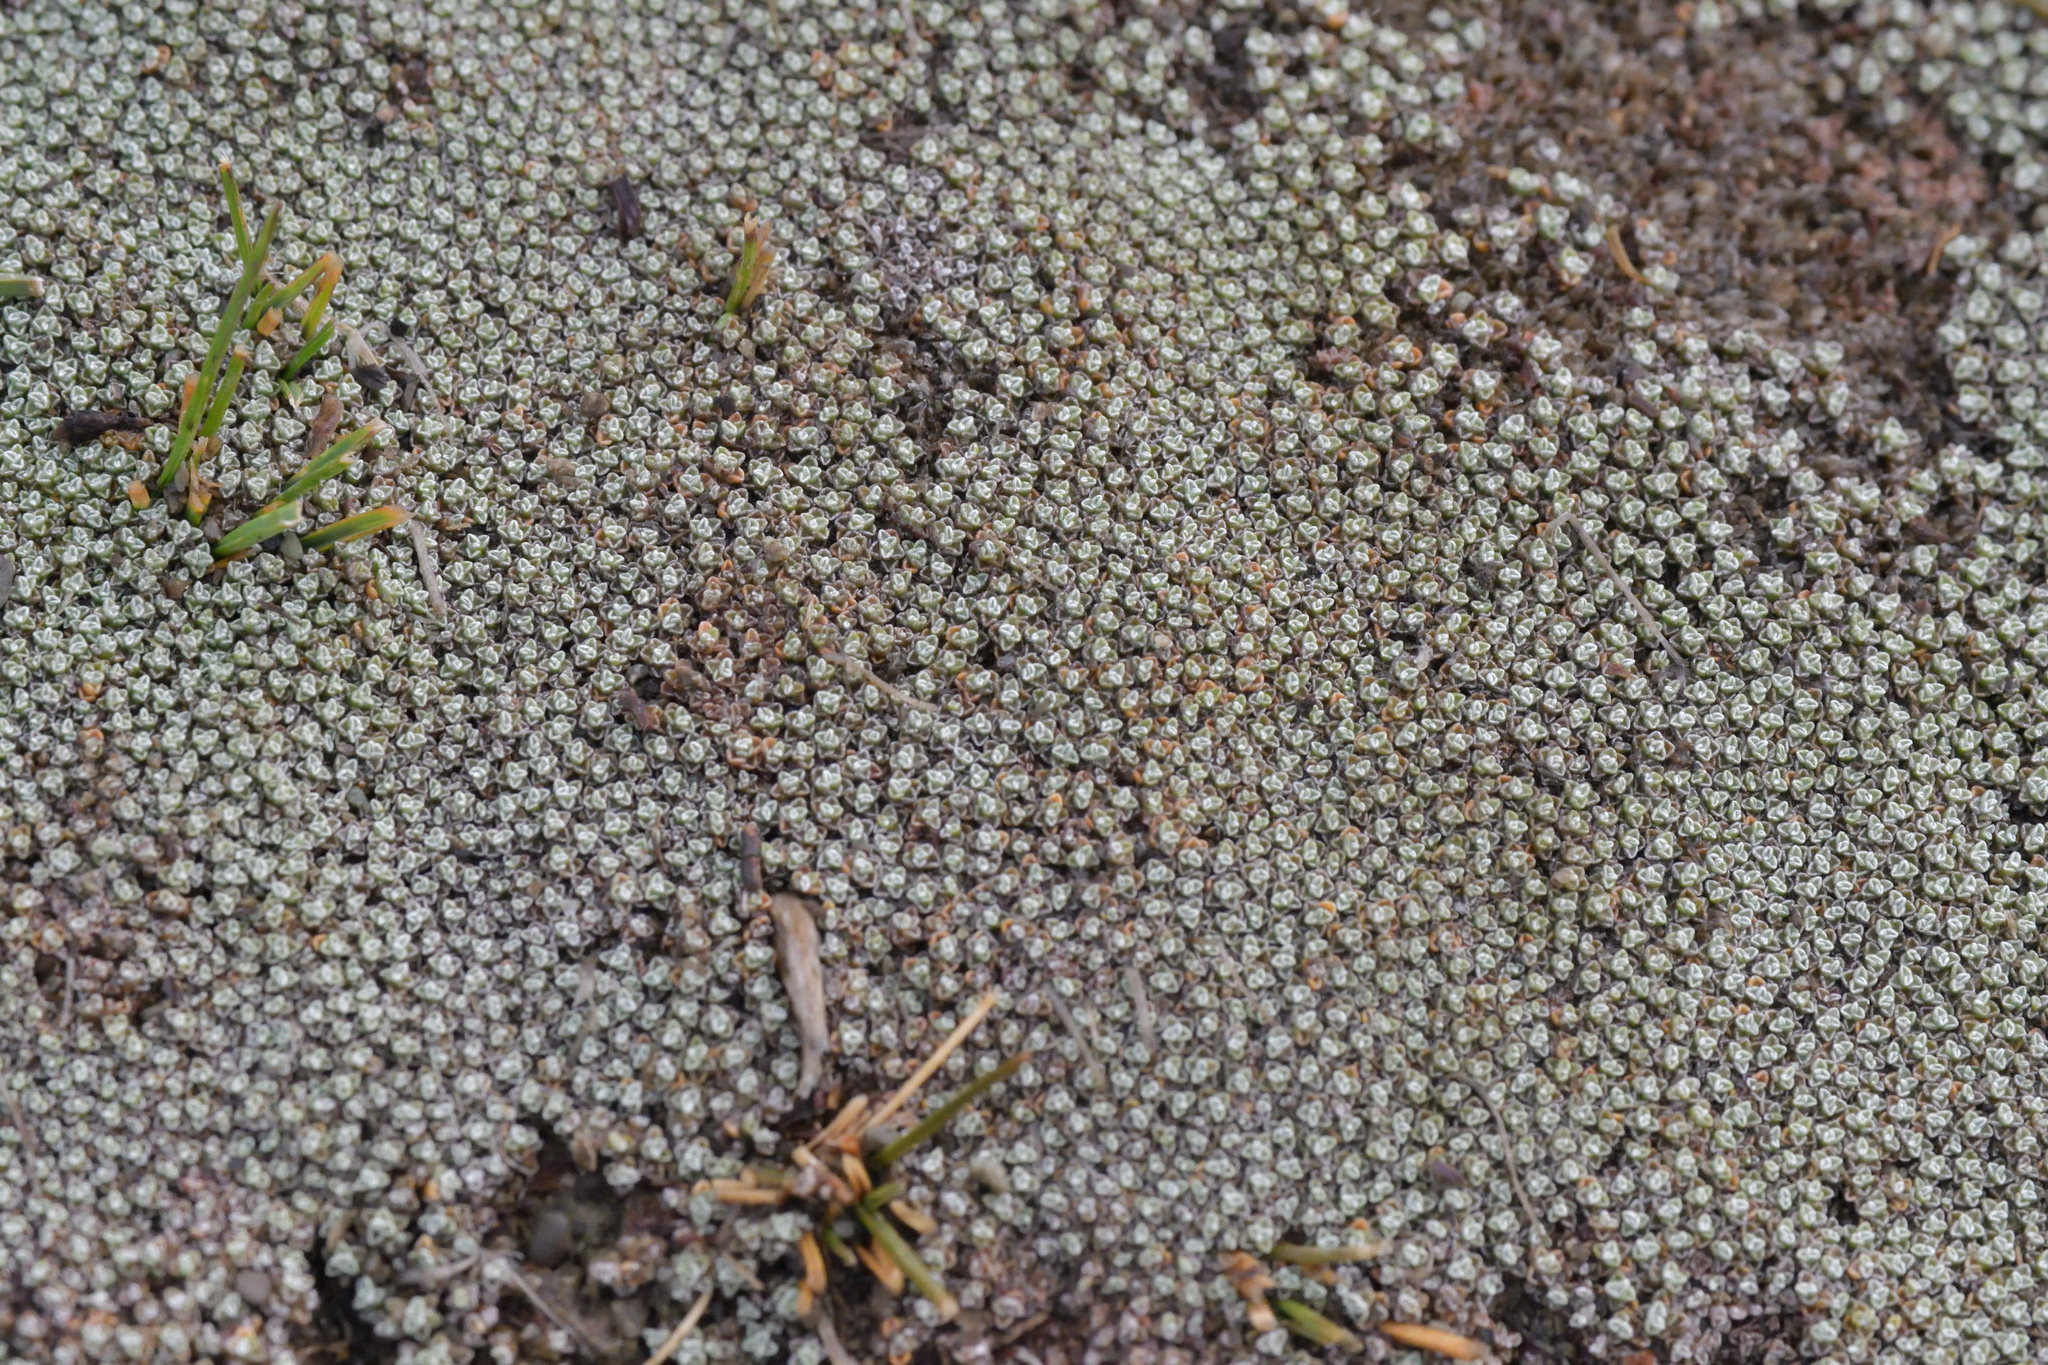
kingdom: Plantae
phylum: Tracheophyta
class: Magnoliopsida
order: Asterales
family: Asteraceae
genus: Raoulia
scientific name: Raoulia australis
